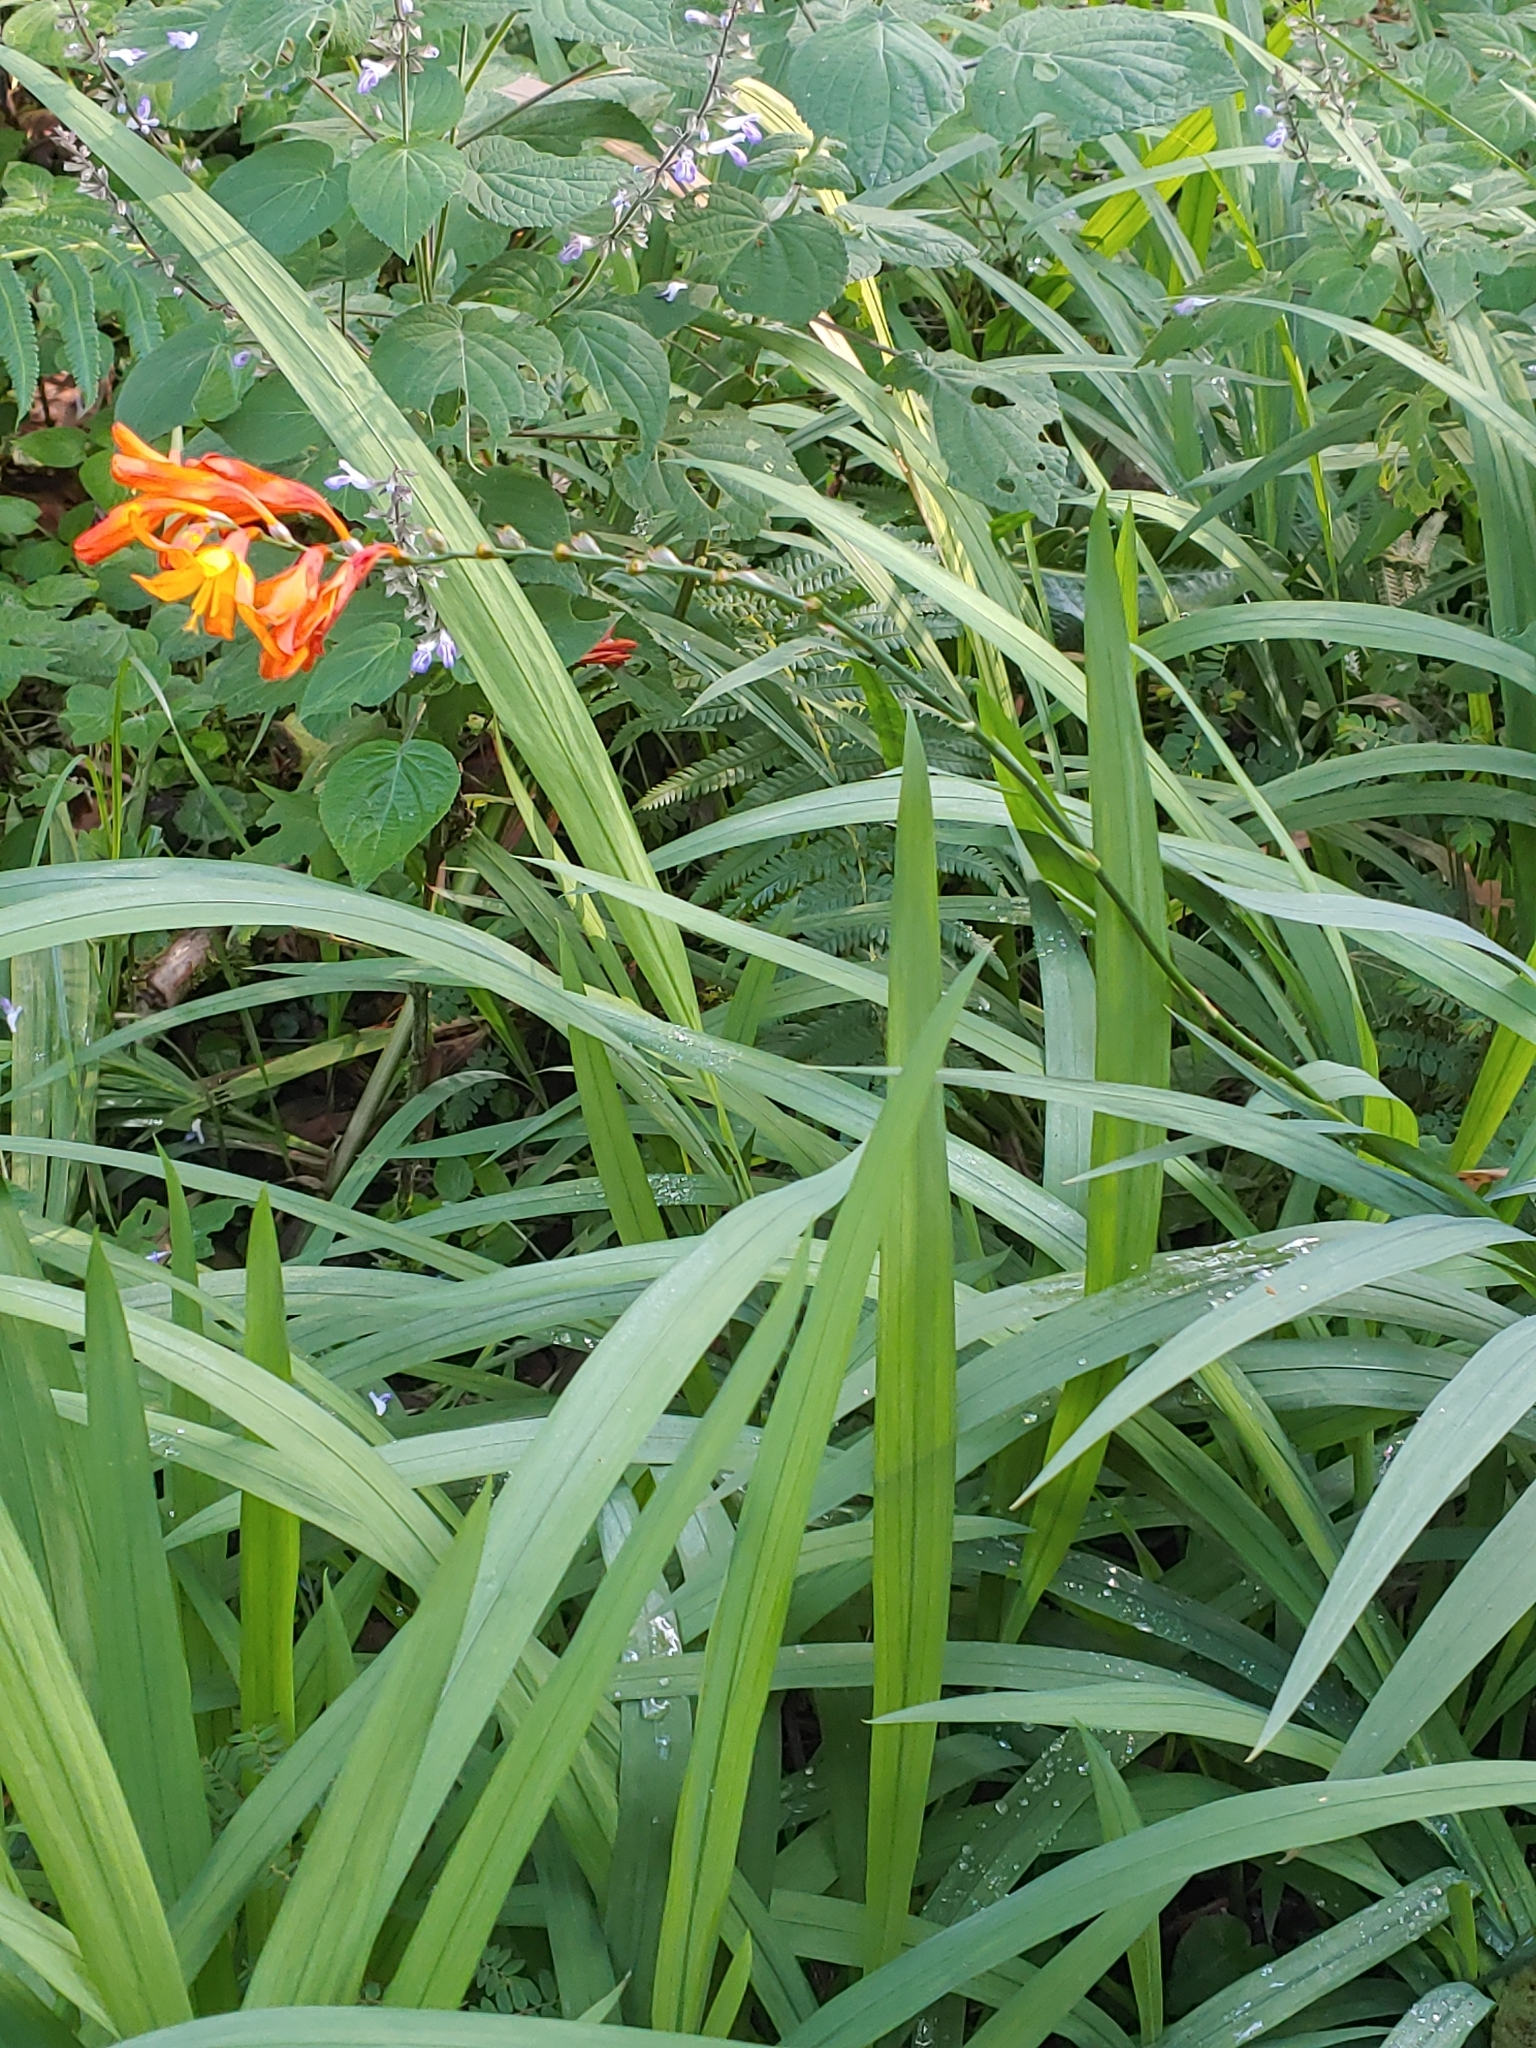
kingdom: Plantae
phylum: Tracheophyta
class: Liliopsida
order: Asparagales
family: Iridaceae
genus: Crocosmia
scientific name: Crocosmia crocosmiiflora
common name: Montbretia
